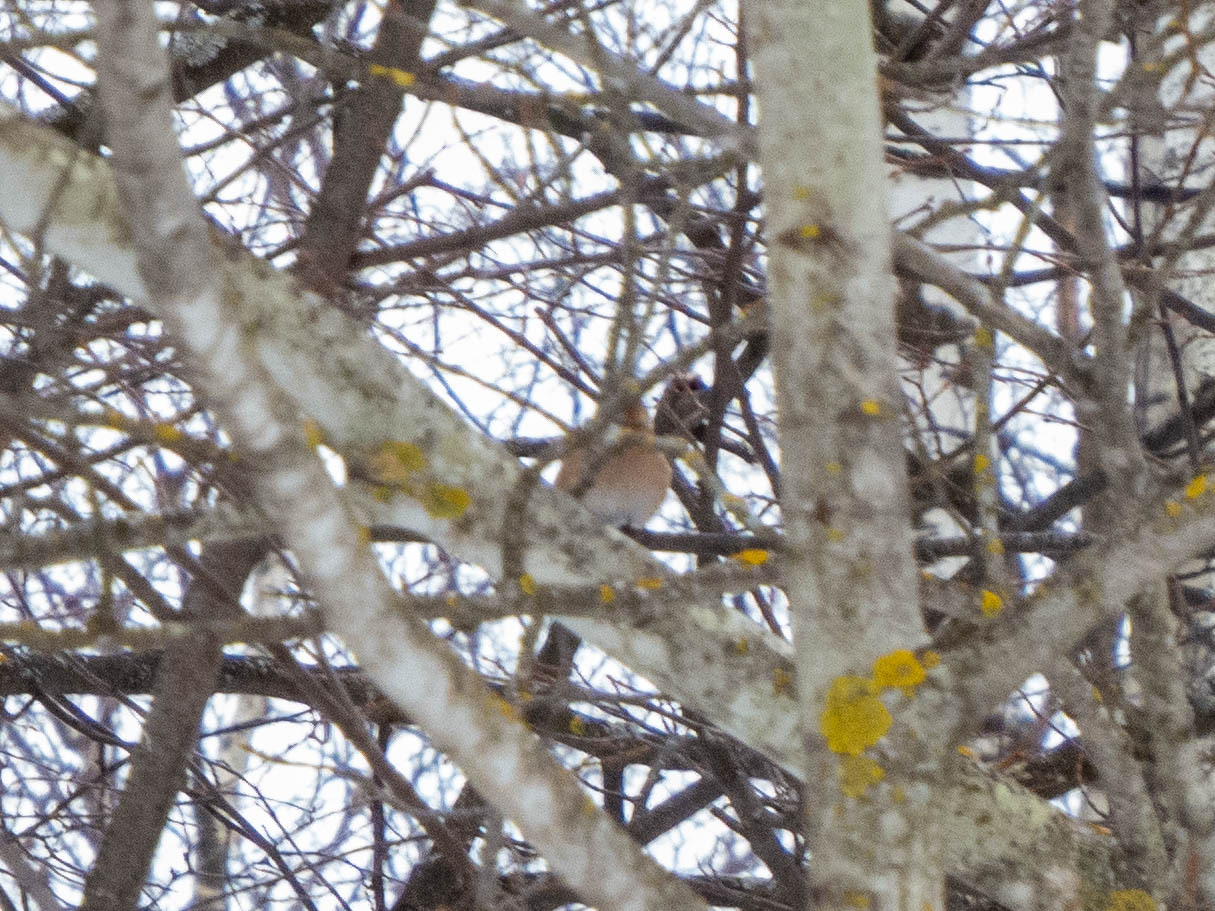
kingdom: Animalia
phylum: Chordata
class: Aves
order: Passeriformes
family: Fringillidae
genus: Fringilla
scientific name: Fringilla coelebs
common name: Common chaffinch
